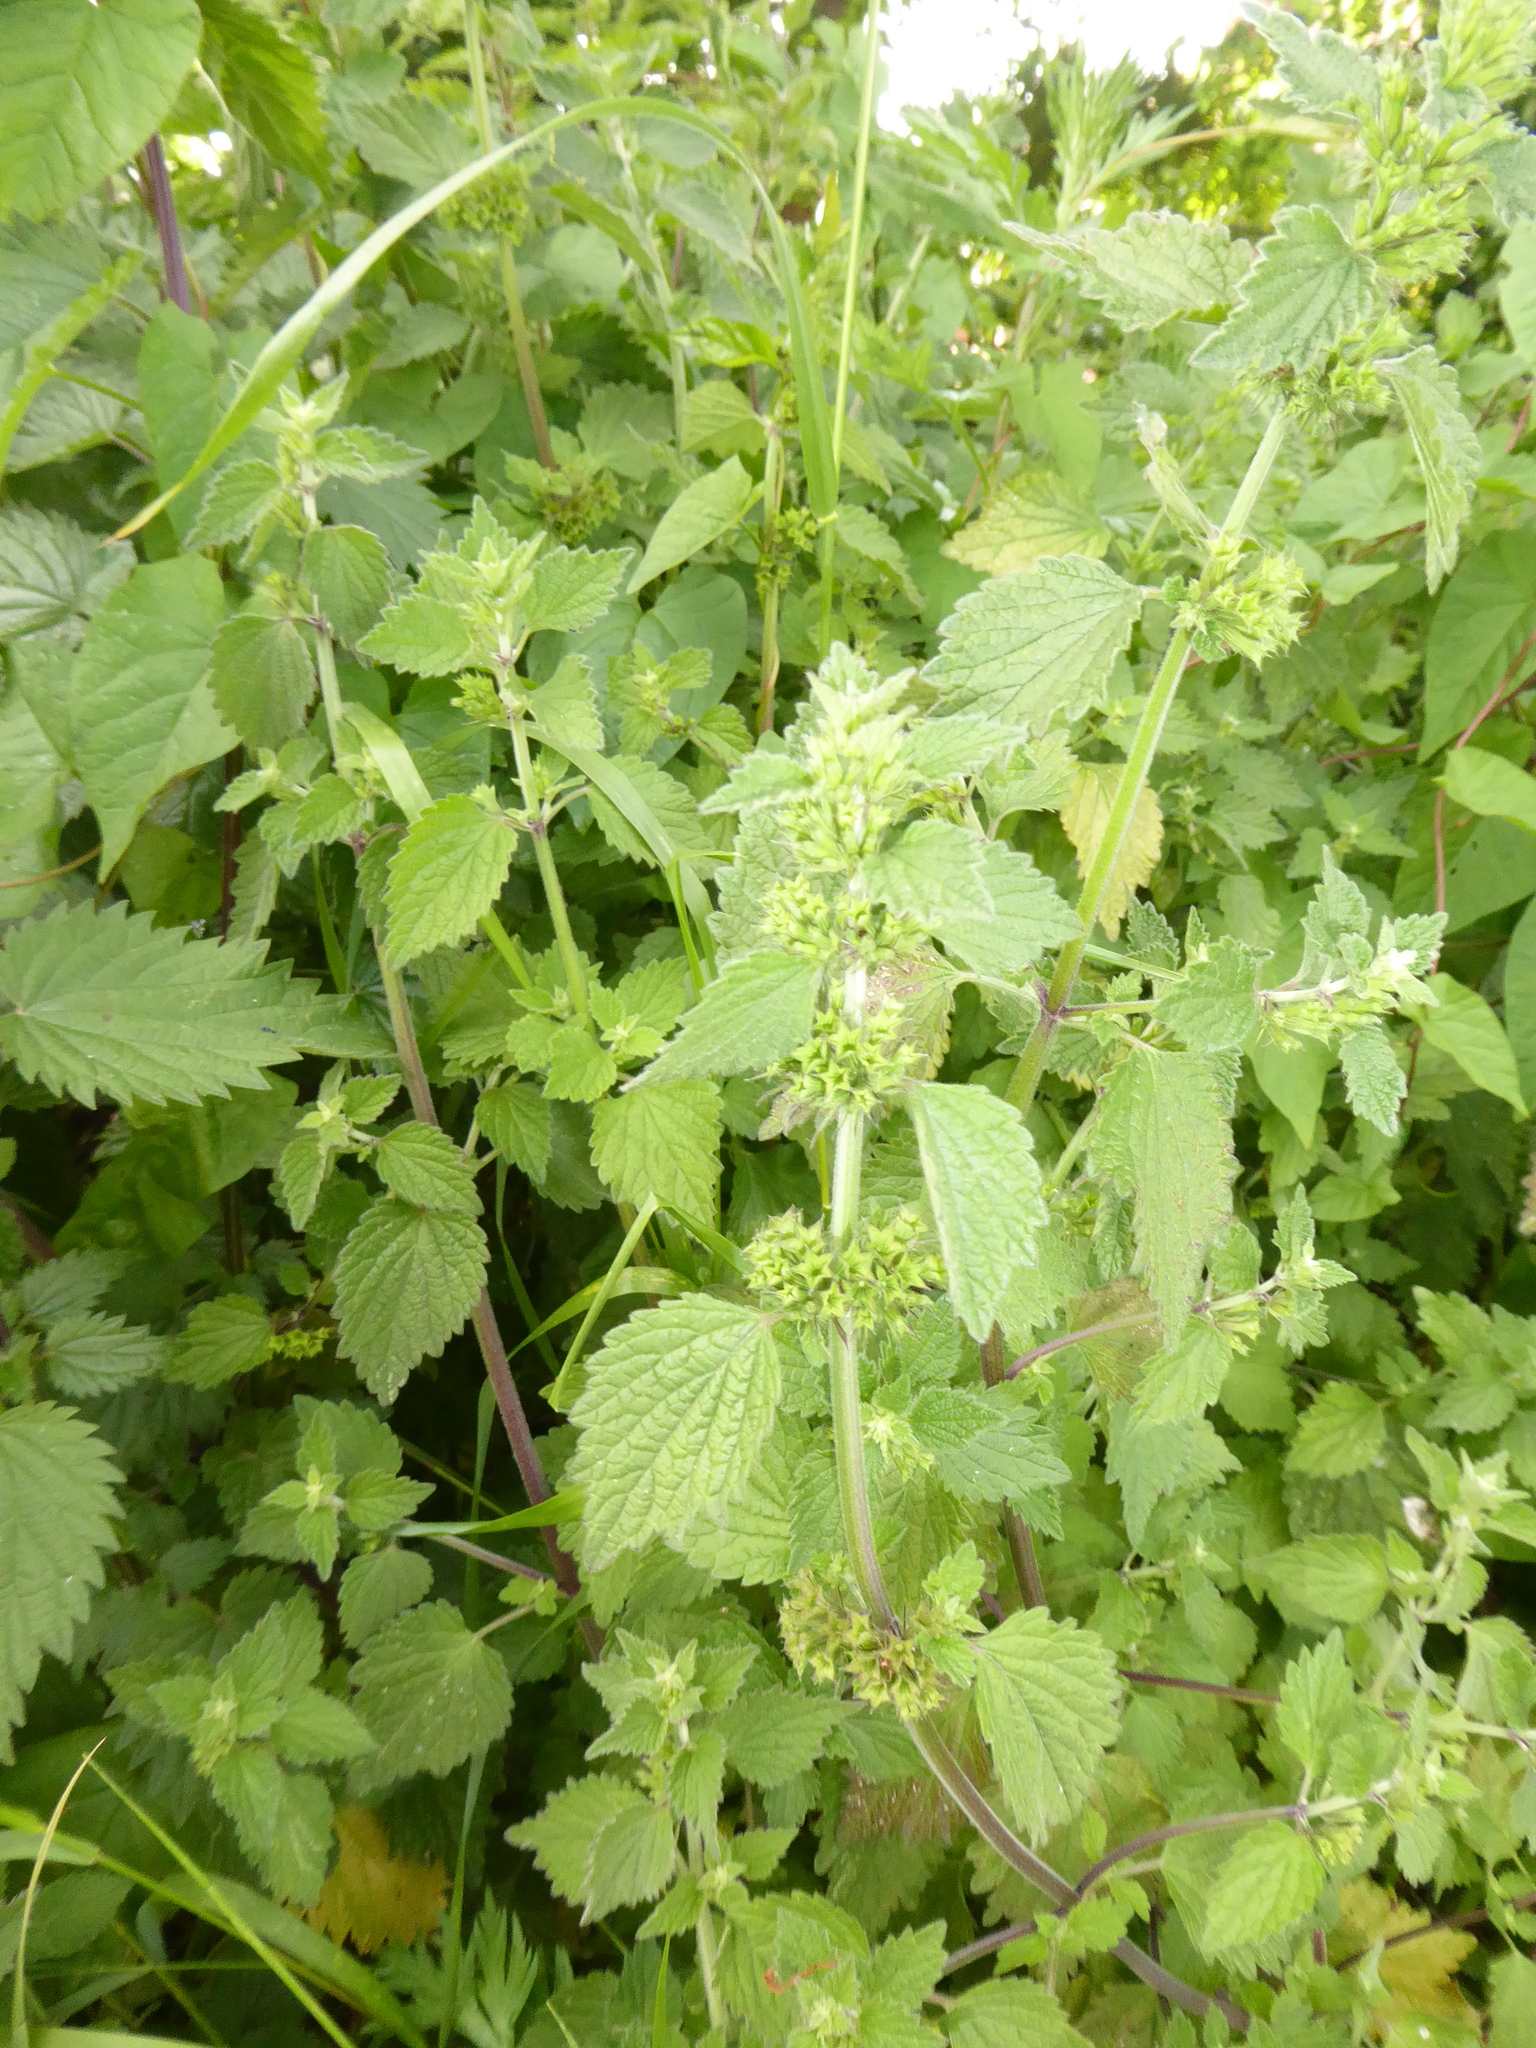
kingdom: Plantae
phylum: Tracheophyta
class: Magnoliopsida
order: Lamiales
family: Lamiaceae
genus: Ballota
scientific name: Ballota nigra
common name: Black horehound
